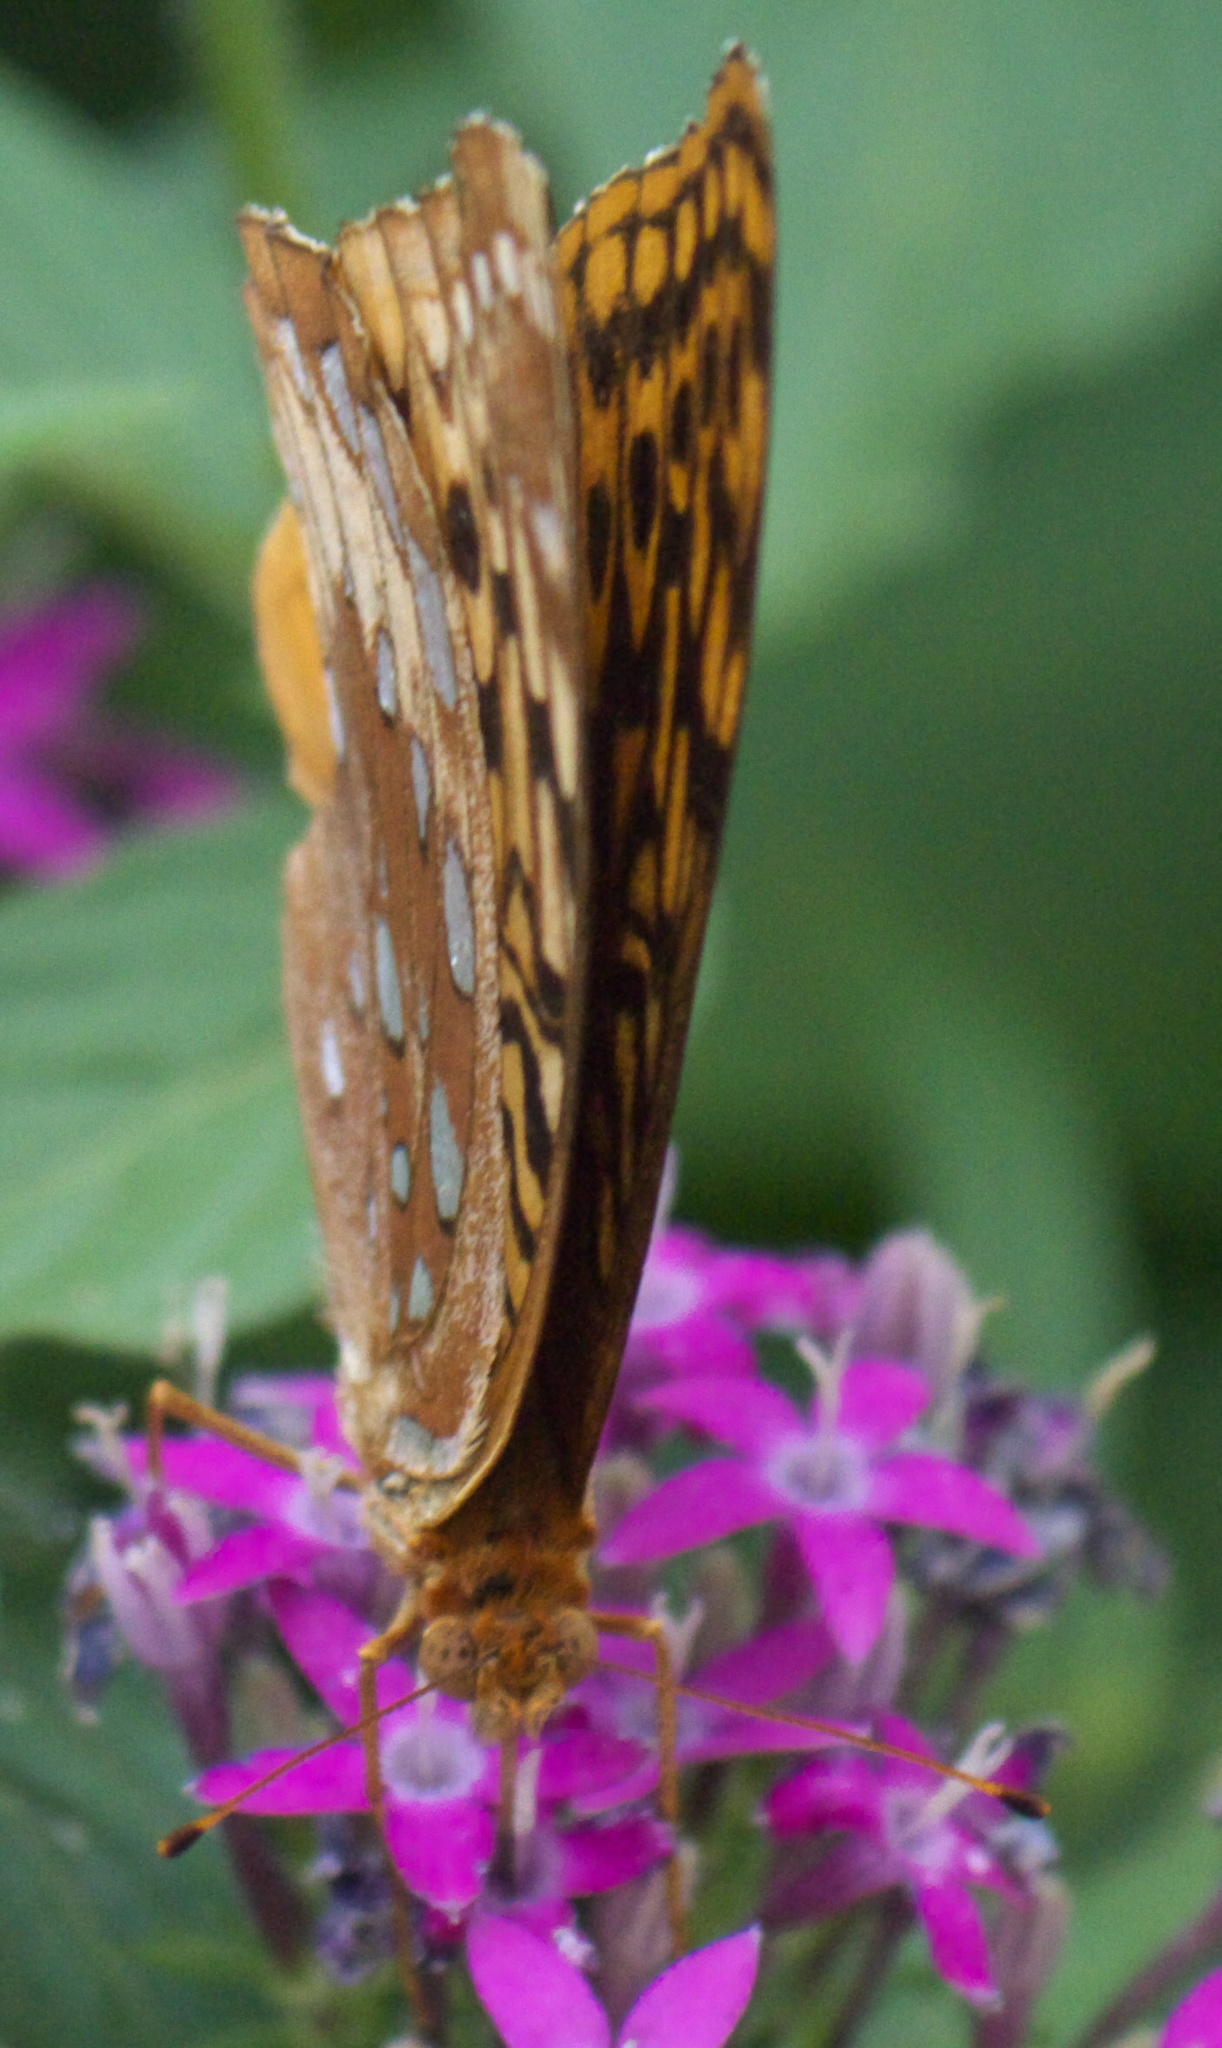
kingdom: Animalia
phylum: Arthropoda
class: Insecta
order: Lepidoptera
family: Nymphalidae
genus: Speyeria
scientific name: Speyeria cybele
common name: Great spangled fritillary
